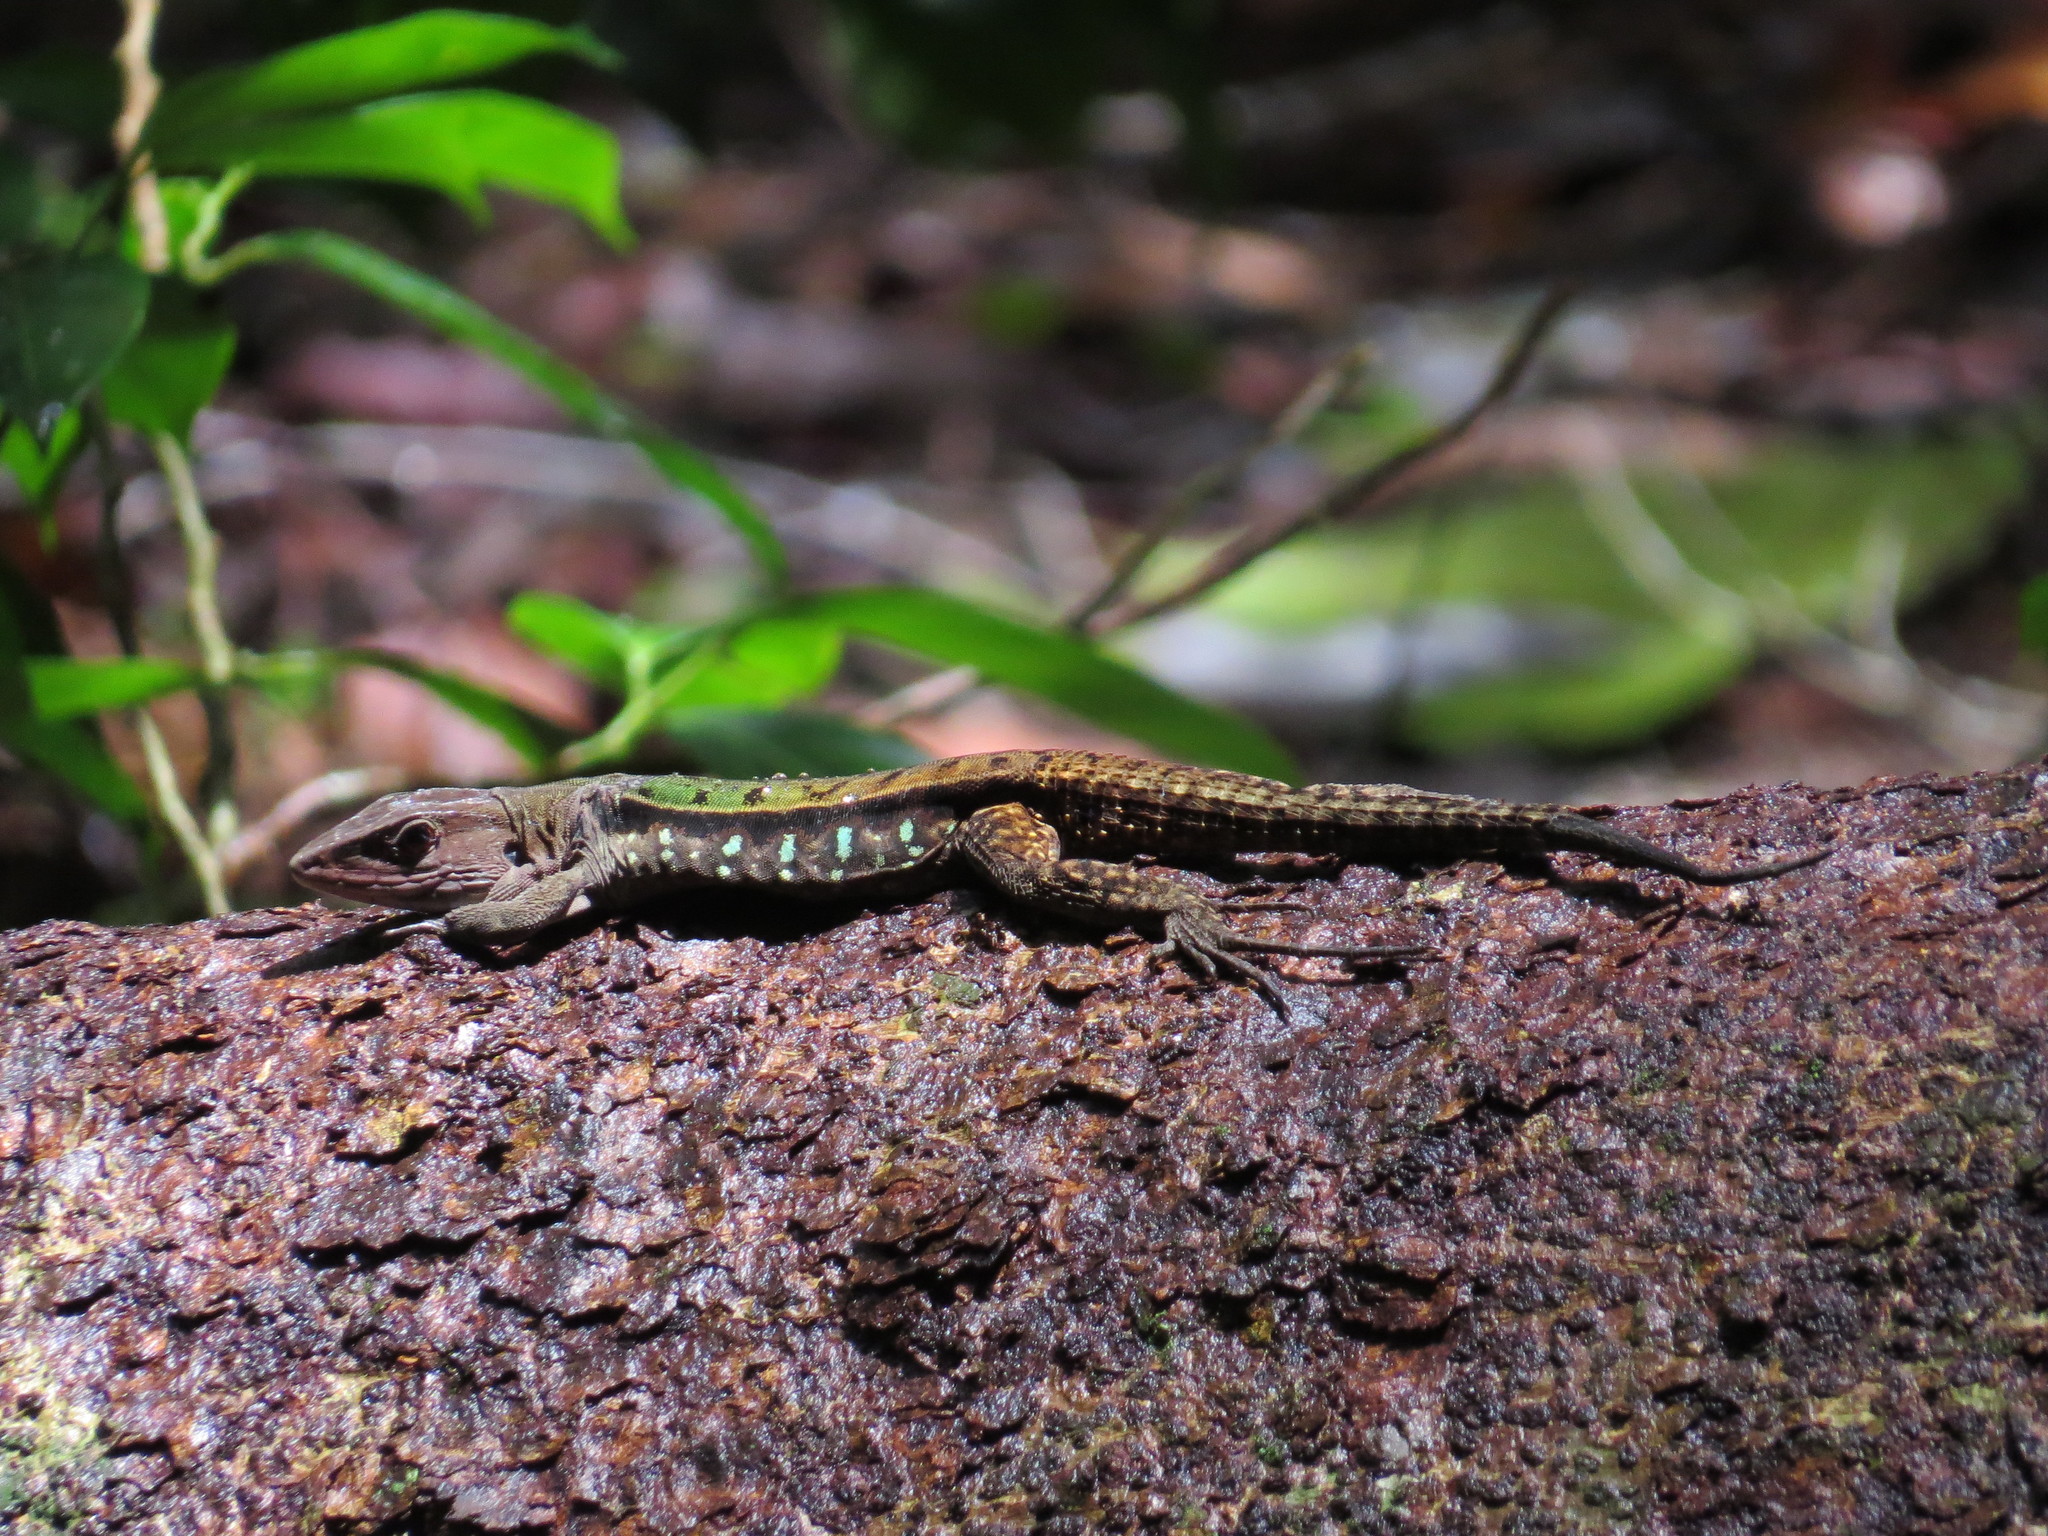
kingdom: Animalia
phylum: Chordata
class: Squamata
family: Teiidae
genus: Kentropyx
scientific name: Kentropyx calcarata
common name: Striped forest whiptail
